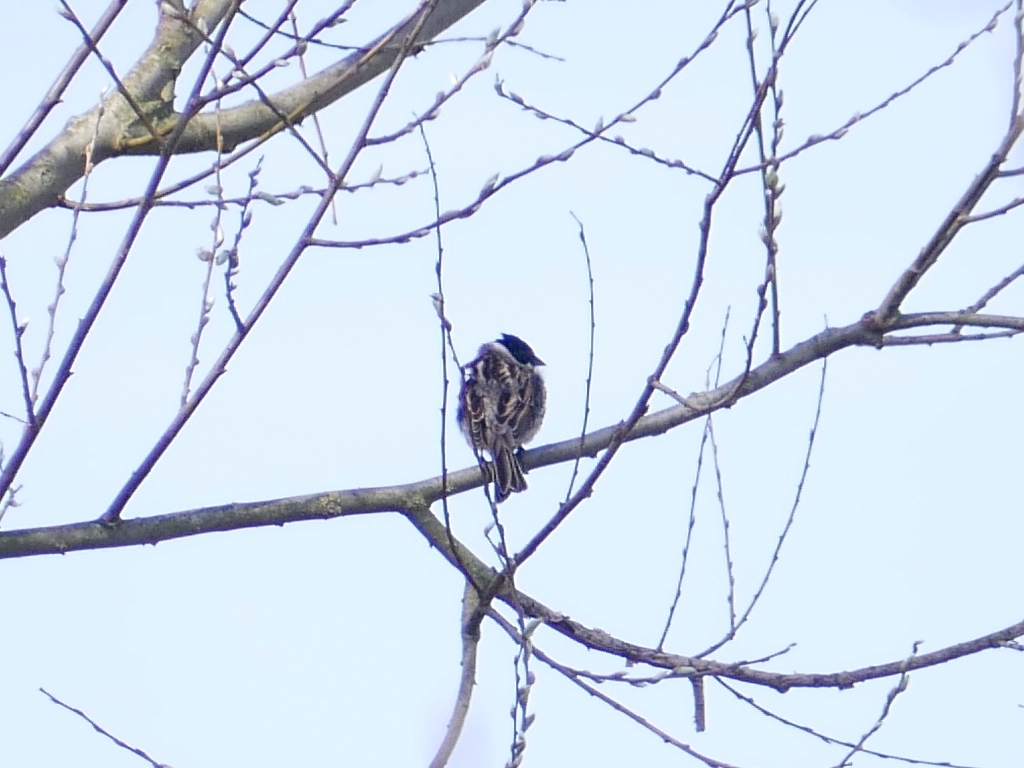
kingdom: Animalia
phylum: Chordata
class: Aves
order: Passeriformes
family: Emberizidae
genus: Emberiza
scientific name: Emberiza schoeniclus
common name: Reed bunting
